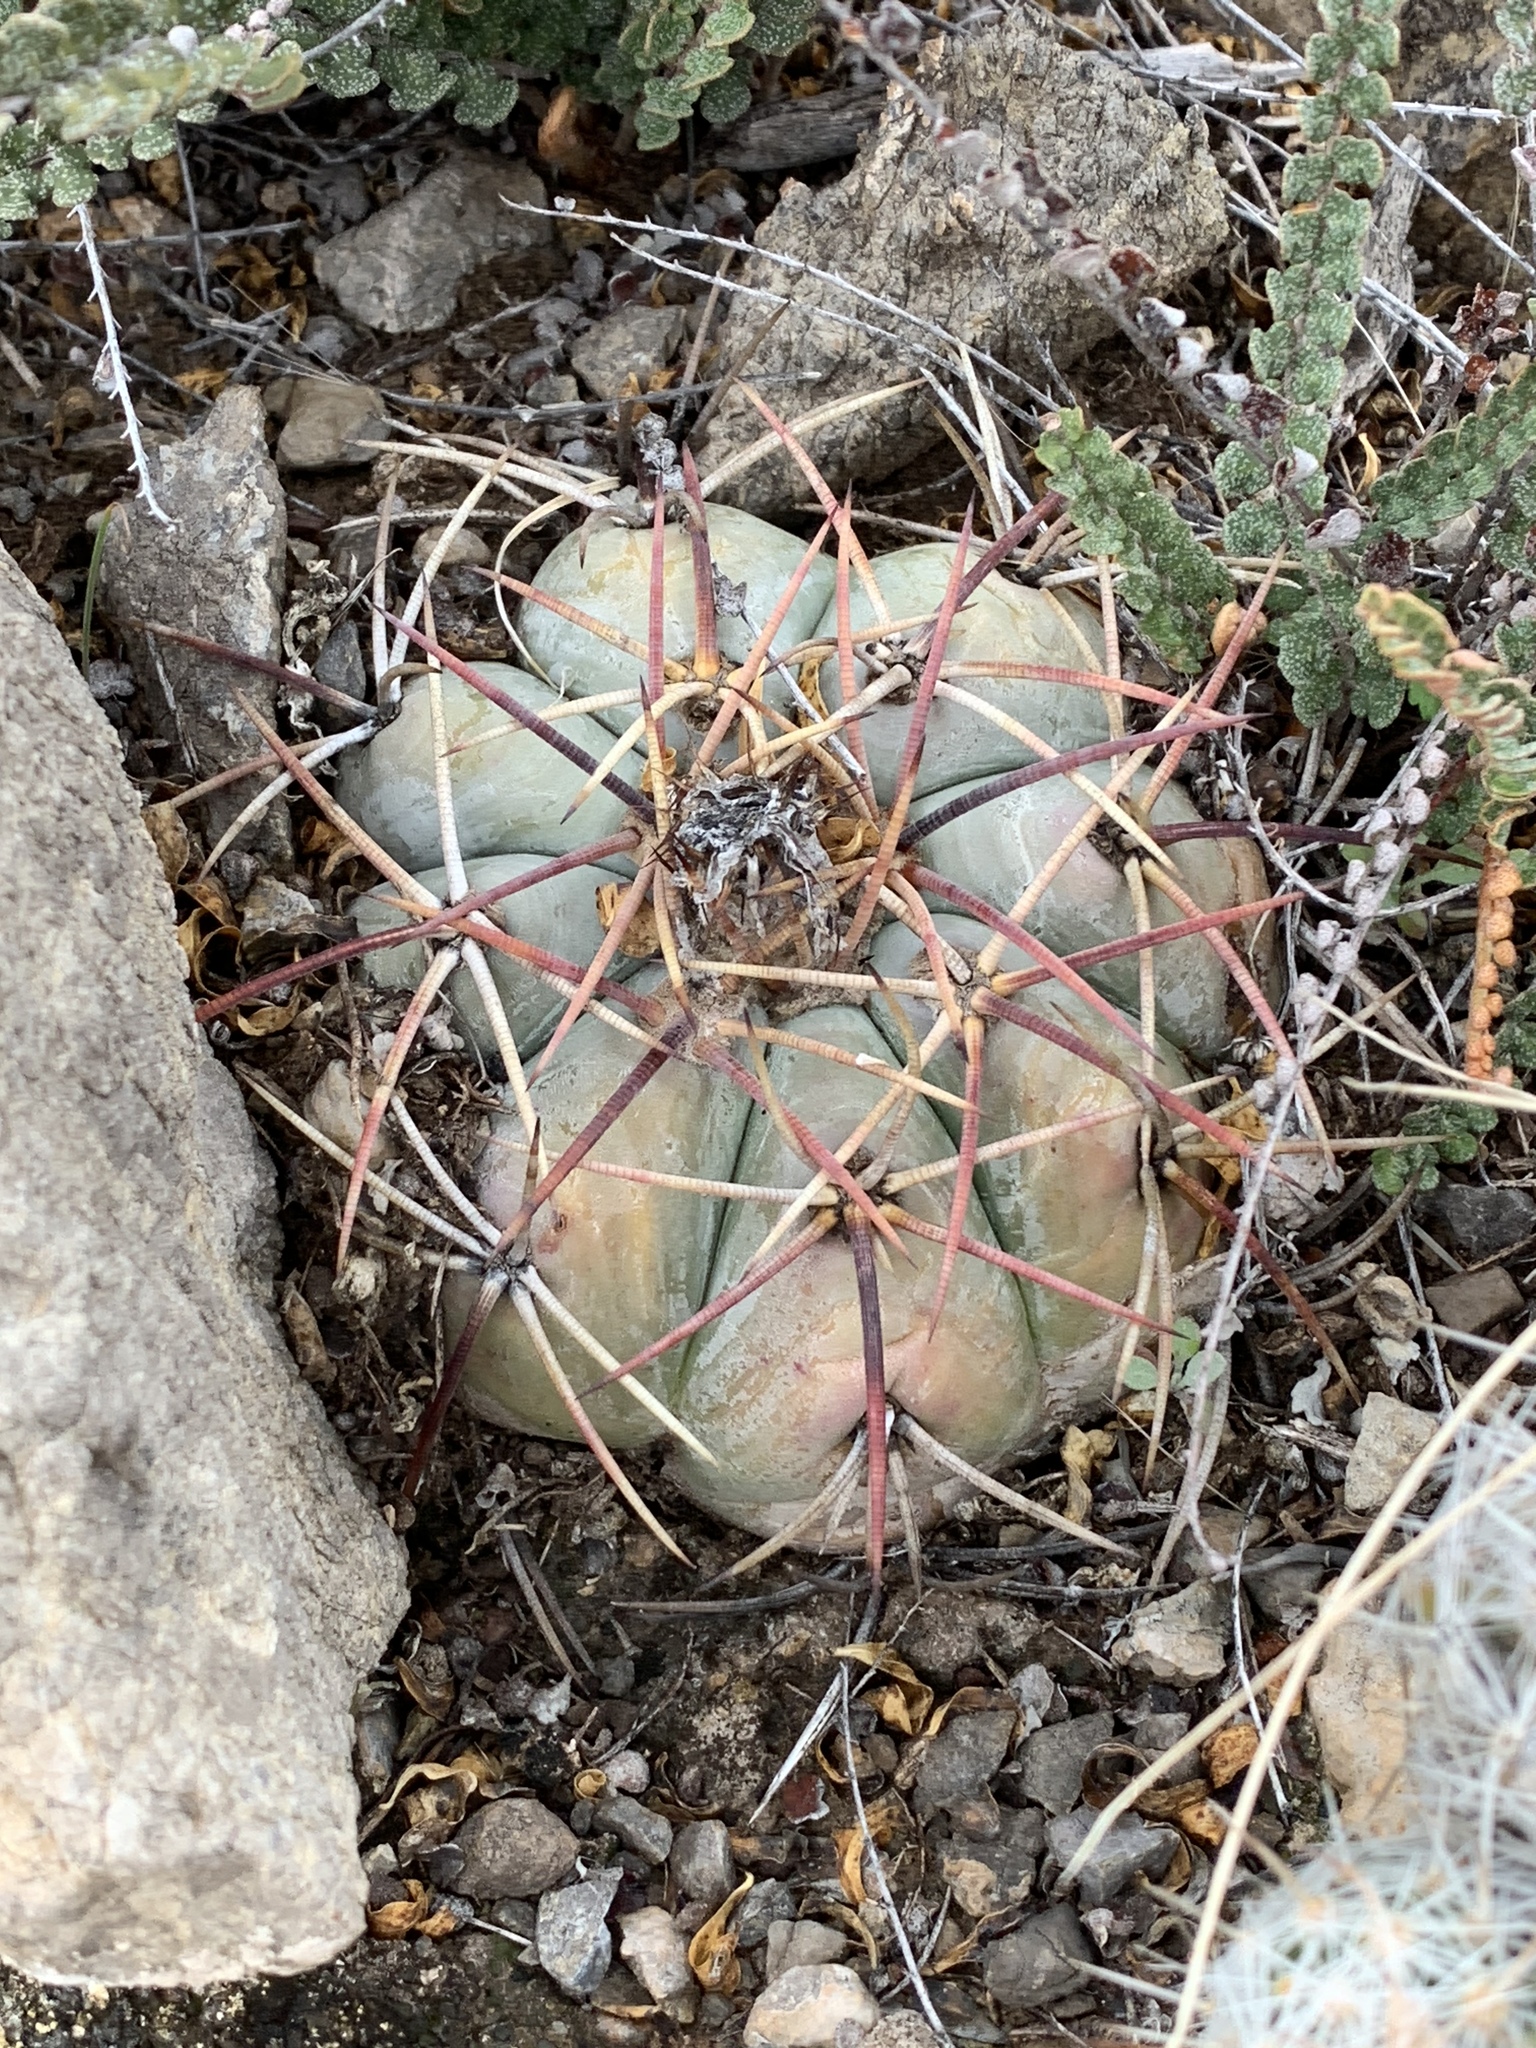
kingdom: Plantae
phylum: Tracheophyta
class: Magnoliopsida
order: Caryophyllales
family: Cactaceae
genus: Echinocactus
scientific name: Echinocactus horizonthalonius
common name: Devilshead
